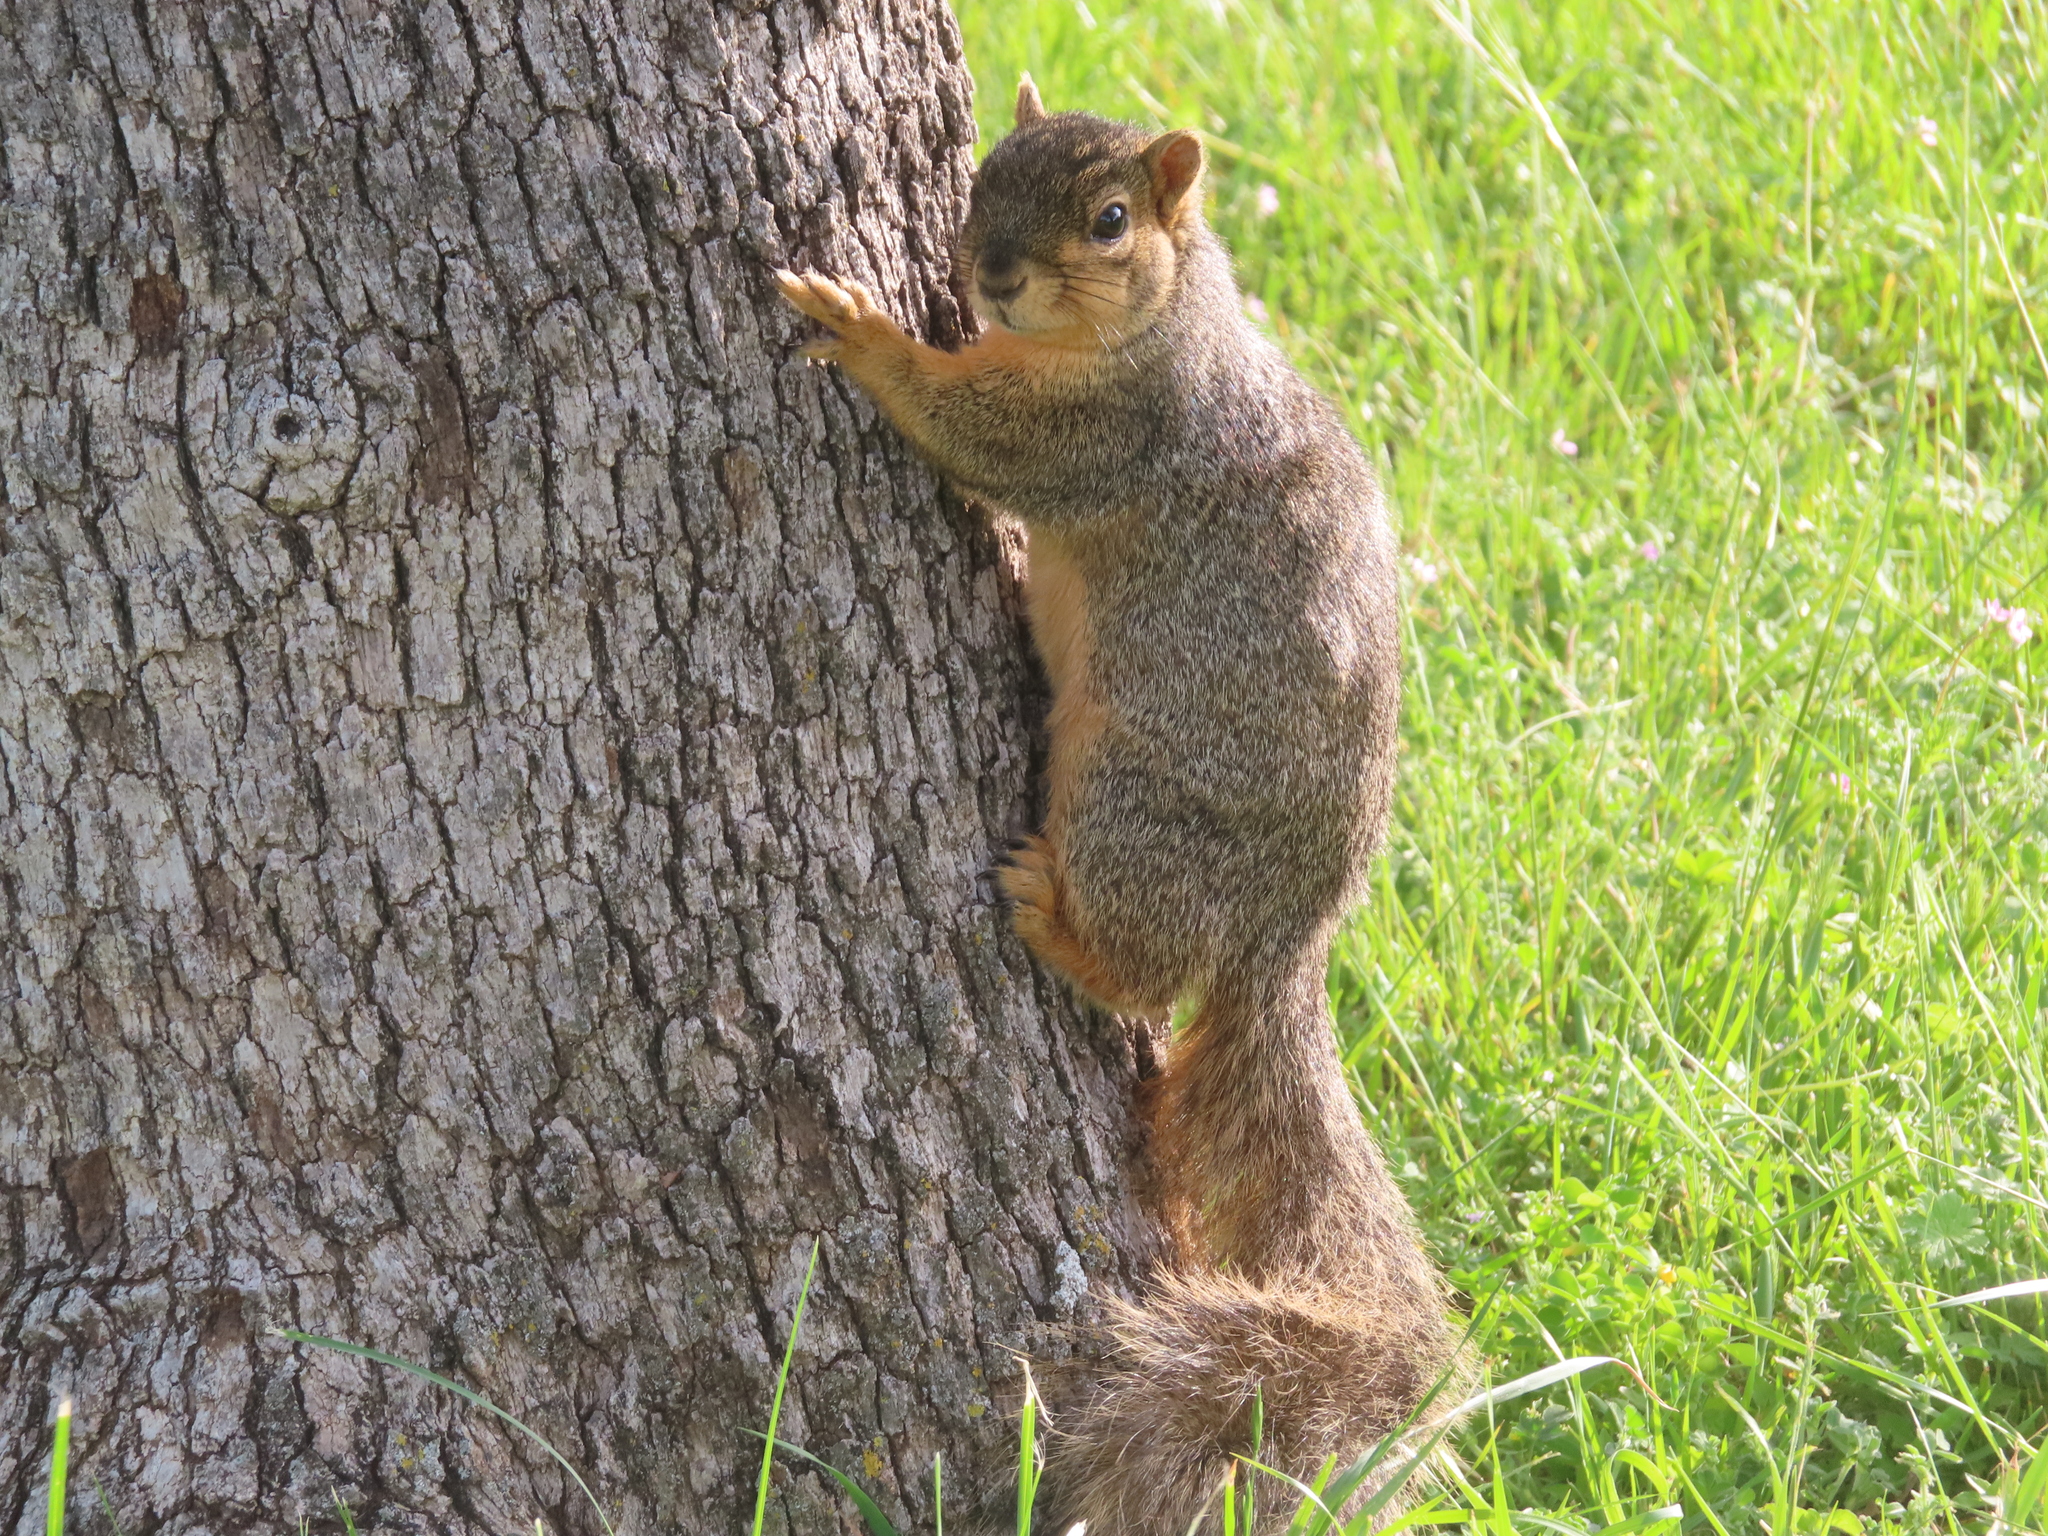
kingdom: Animalia
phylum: Chordata
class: Mammalia
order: Rodentia
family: Sciuridae
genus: Sciurus
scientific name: Sciurus niger
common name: Fox squirrel
